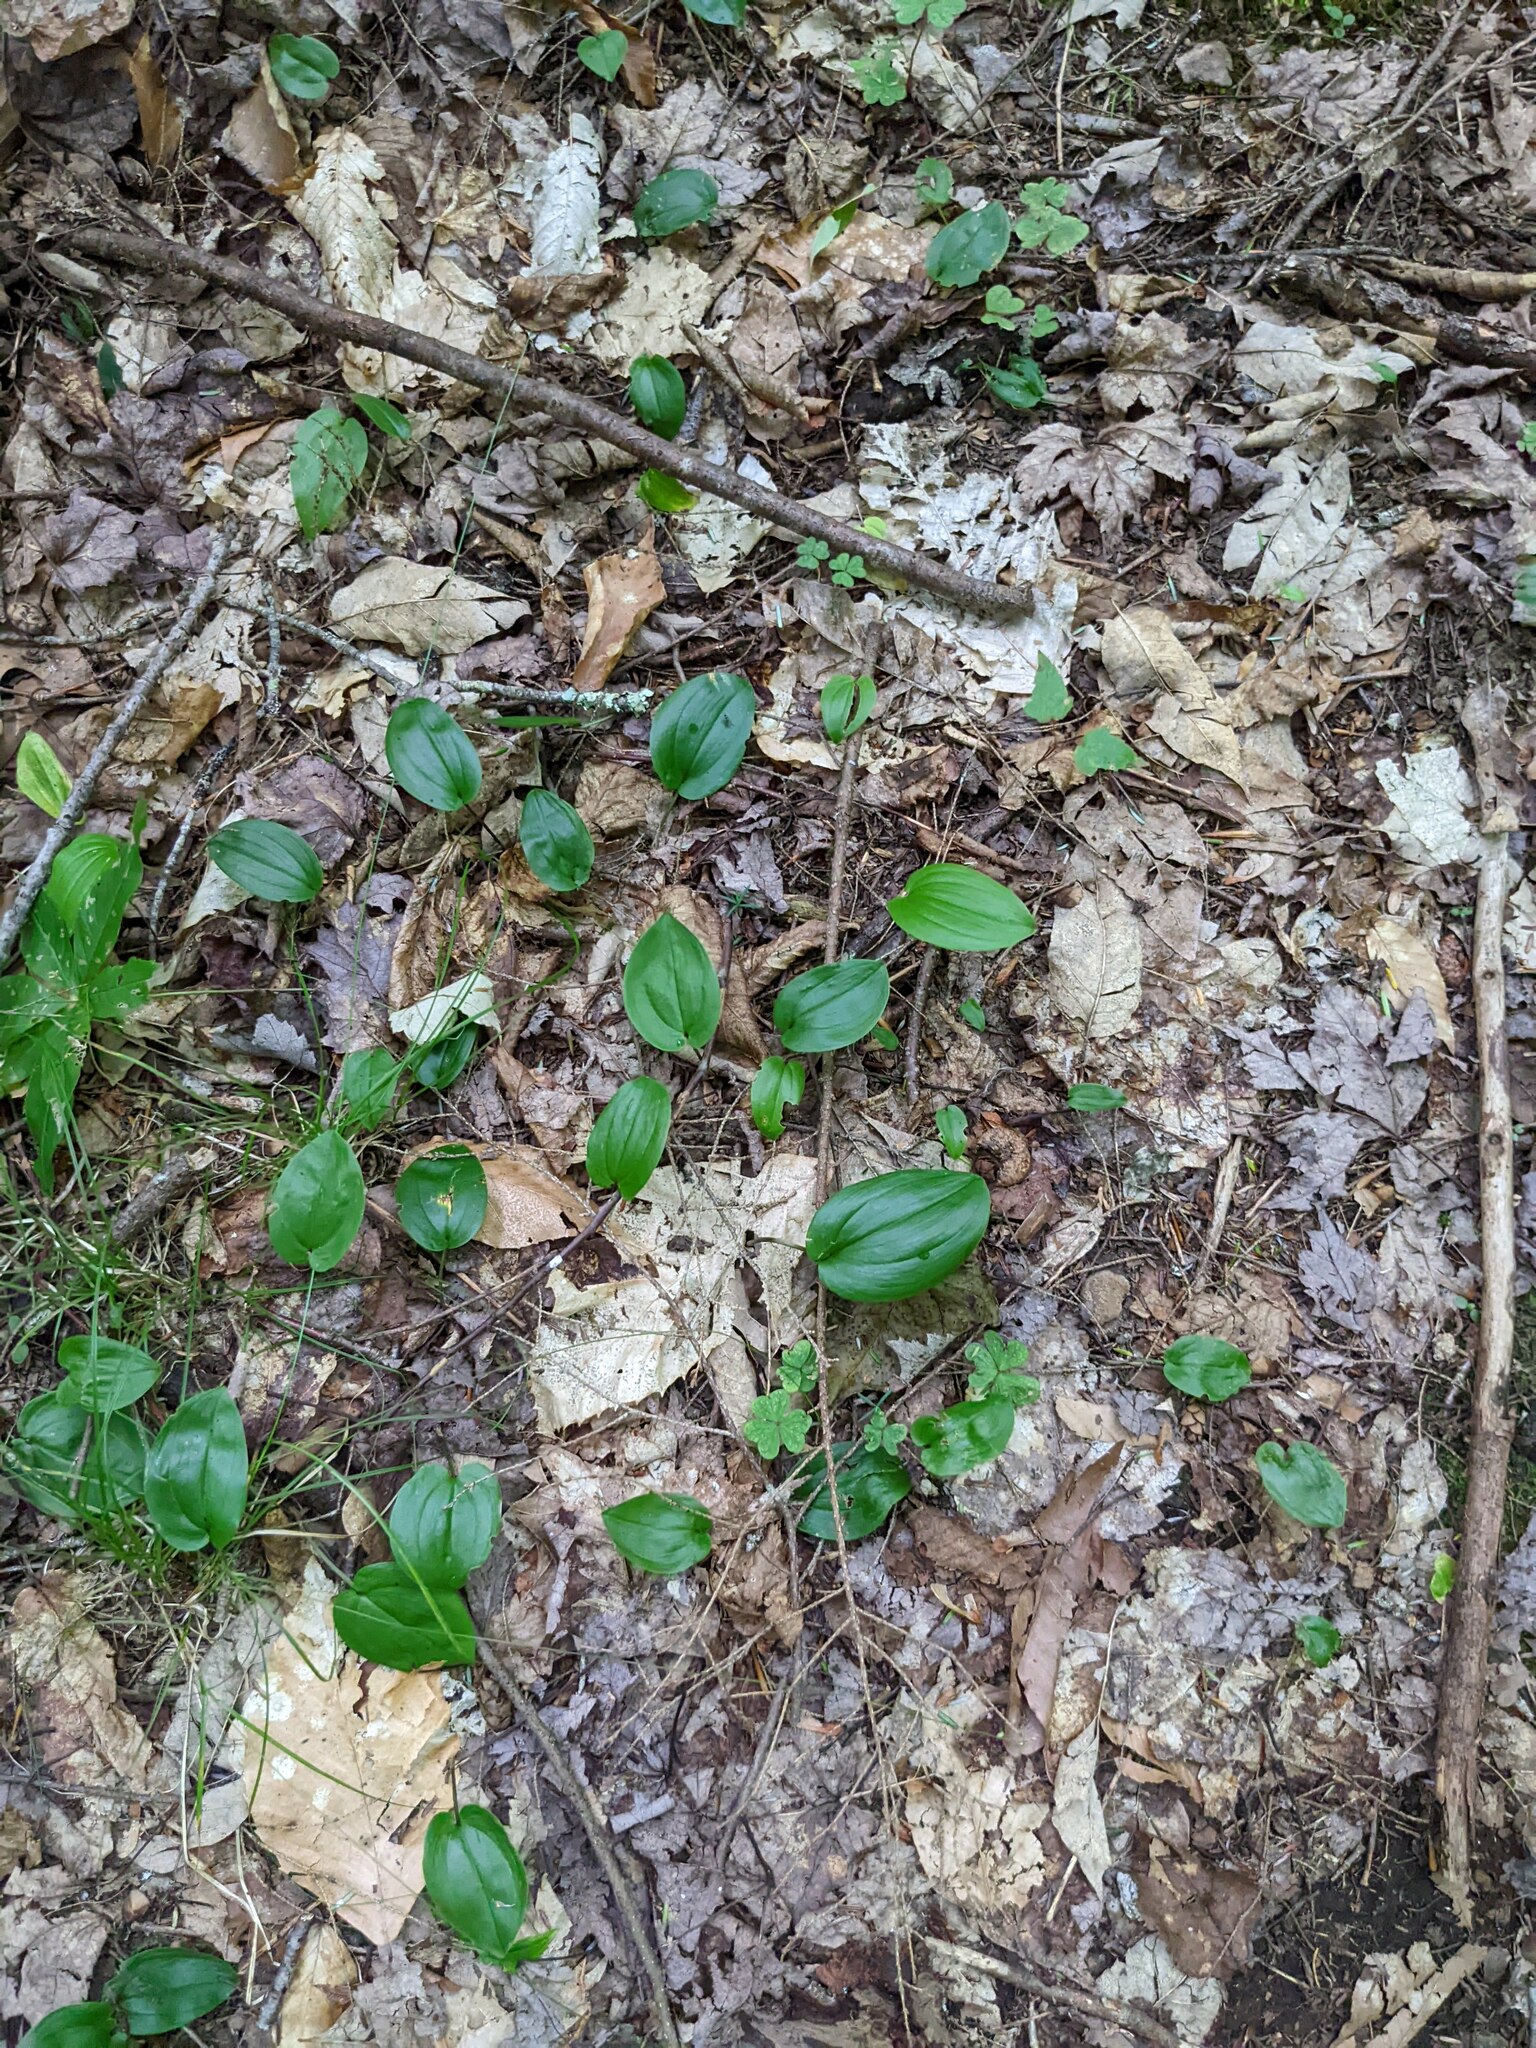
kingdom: Plantae
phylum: Tracheophyta
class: Liliopsida
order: Asparagales
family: Asparagaceae
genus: Maianthemum
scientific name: Maianthemum canadense
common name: False lily-of-the-valley
